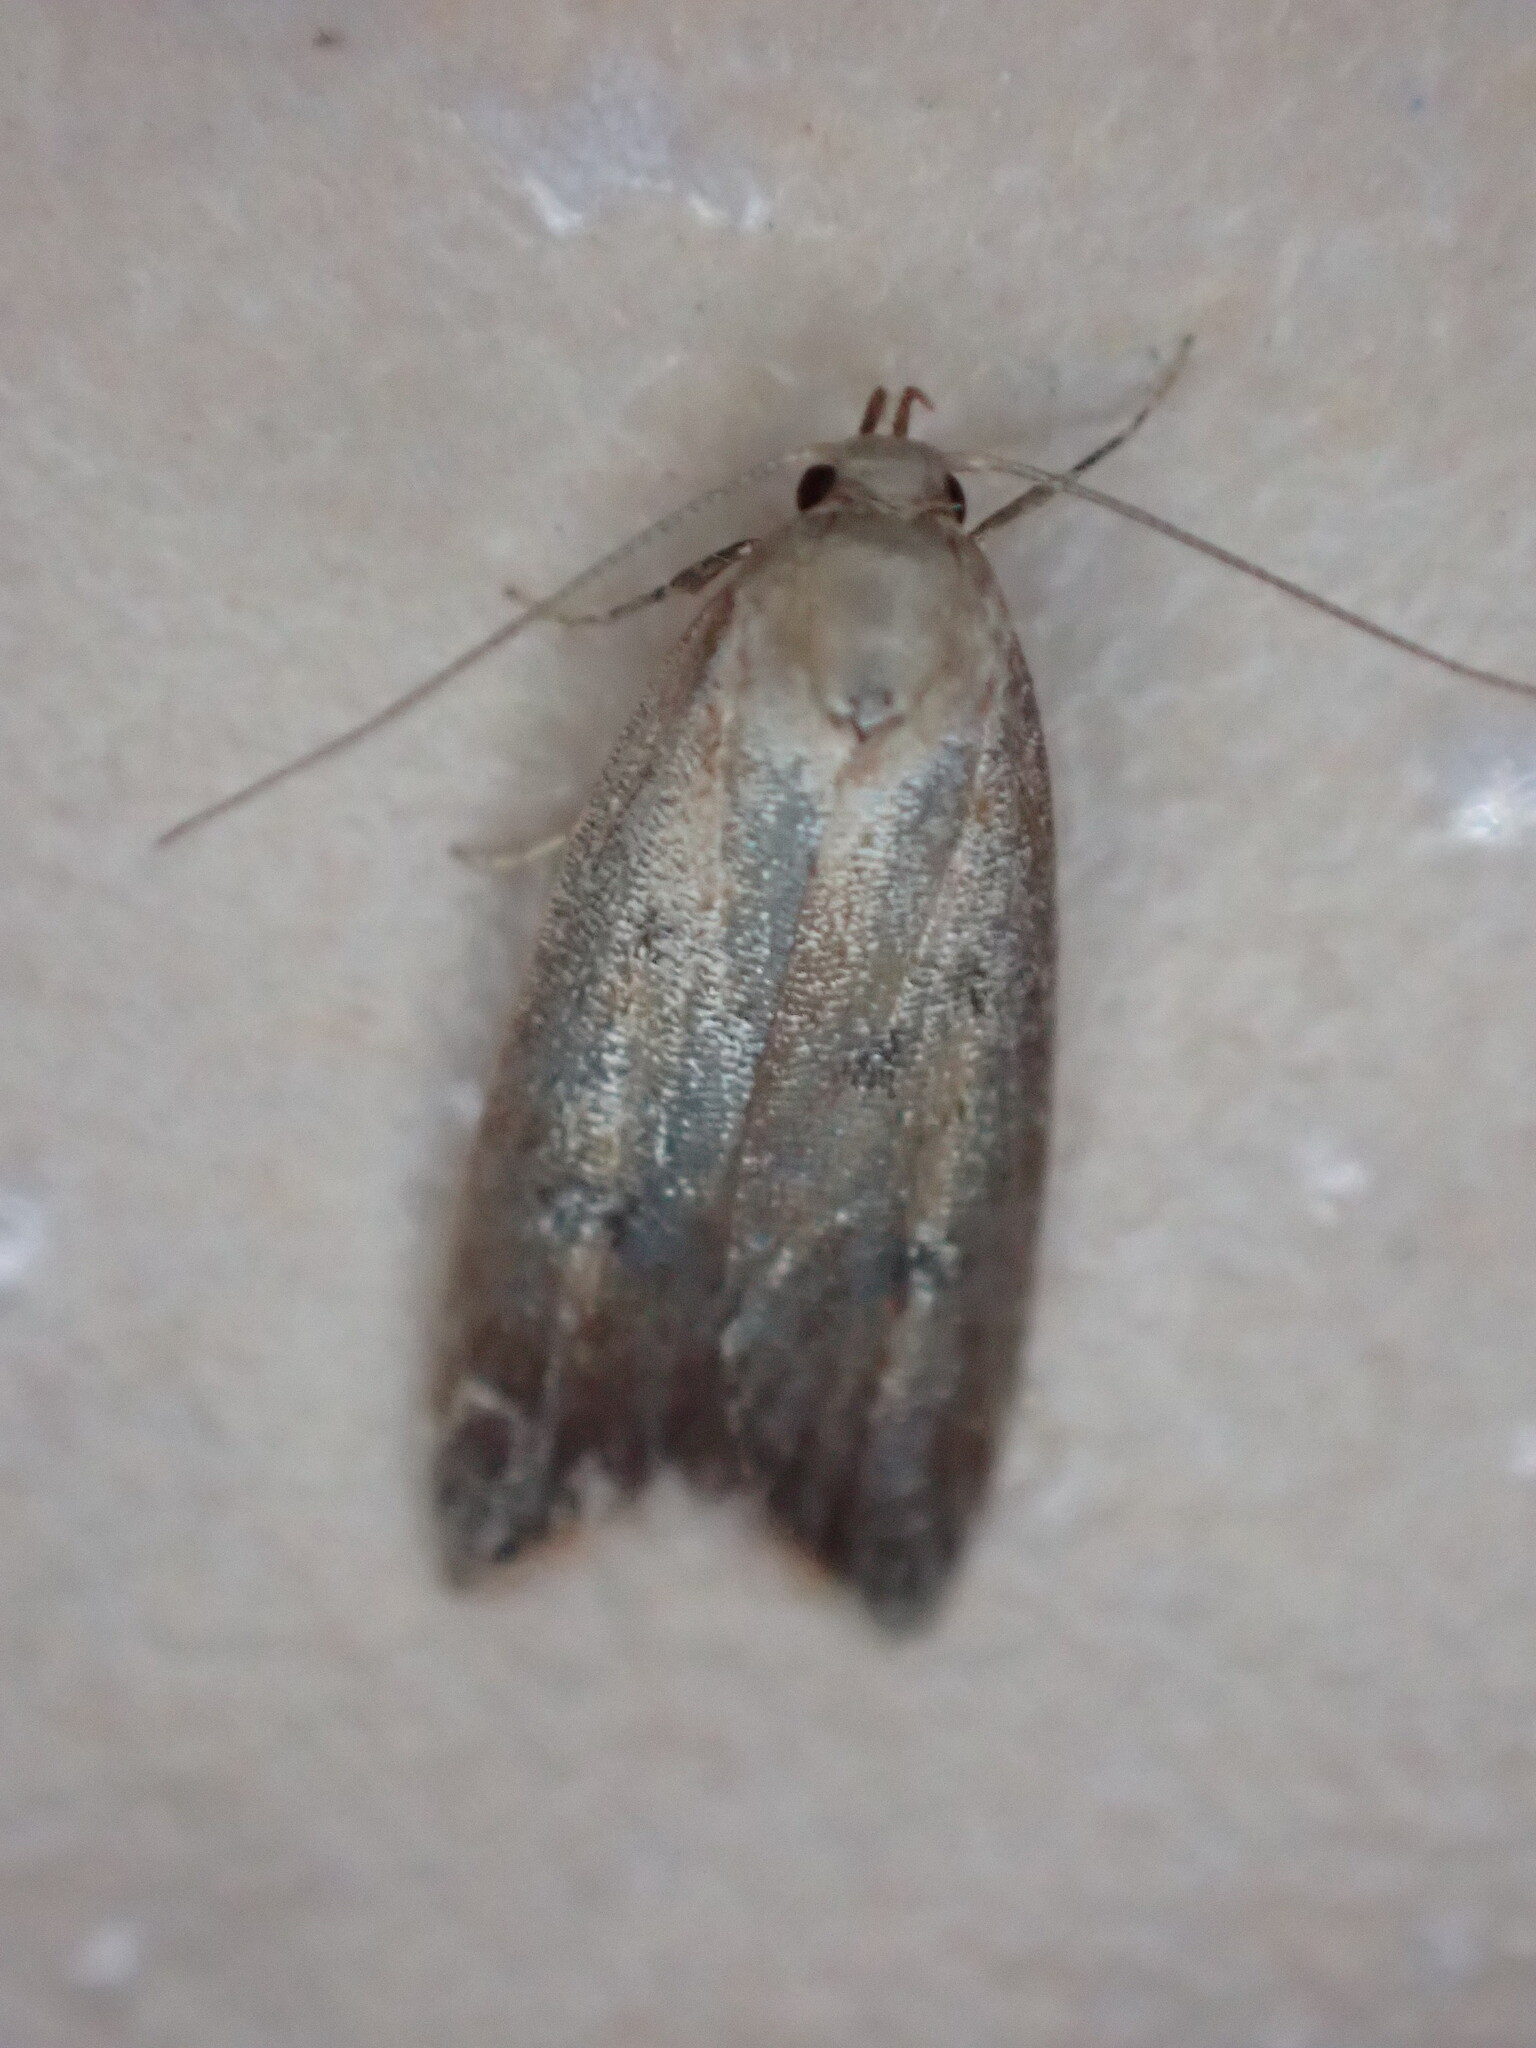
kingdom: Animalia
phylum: Arthropoda
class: Insecta
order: Lepidoptera
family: Oecophoridae
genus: Tachystola
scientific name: Tachystola acroxantha
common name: Ruddy streak
